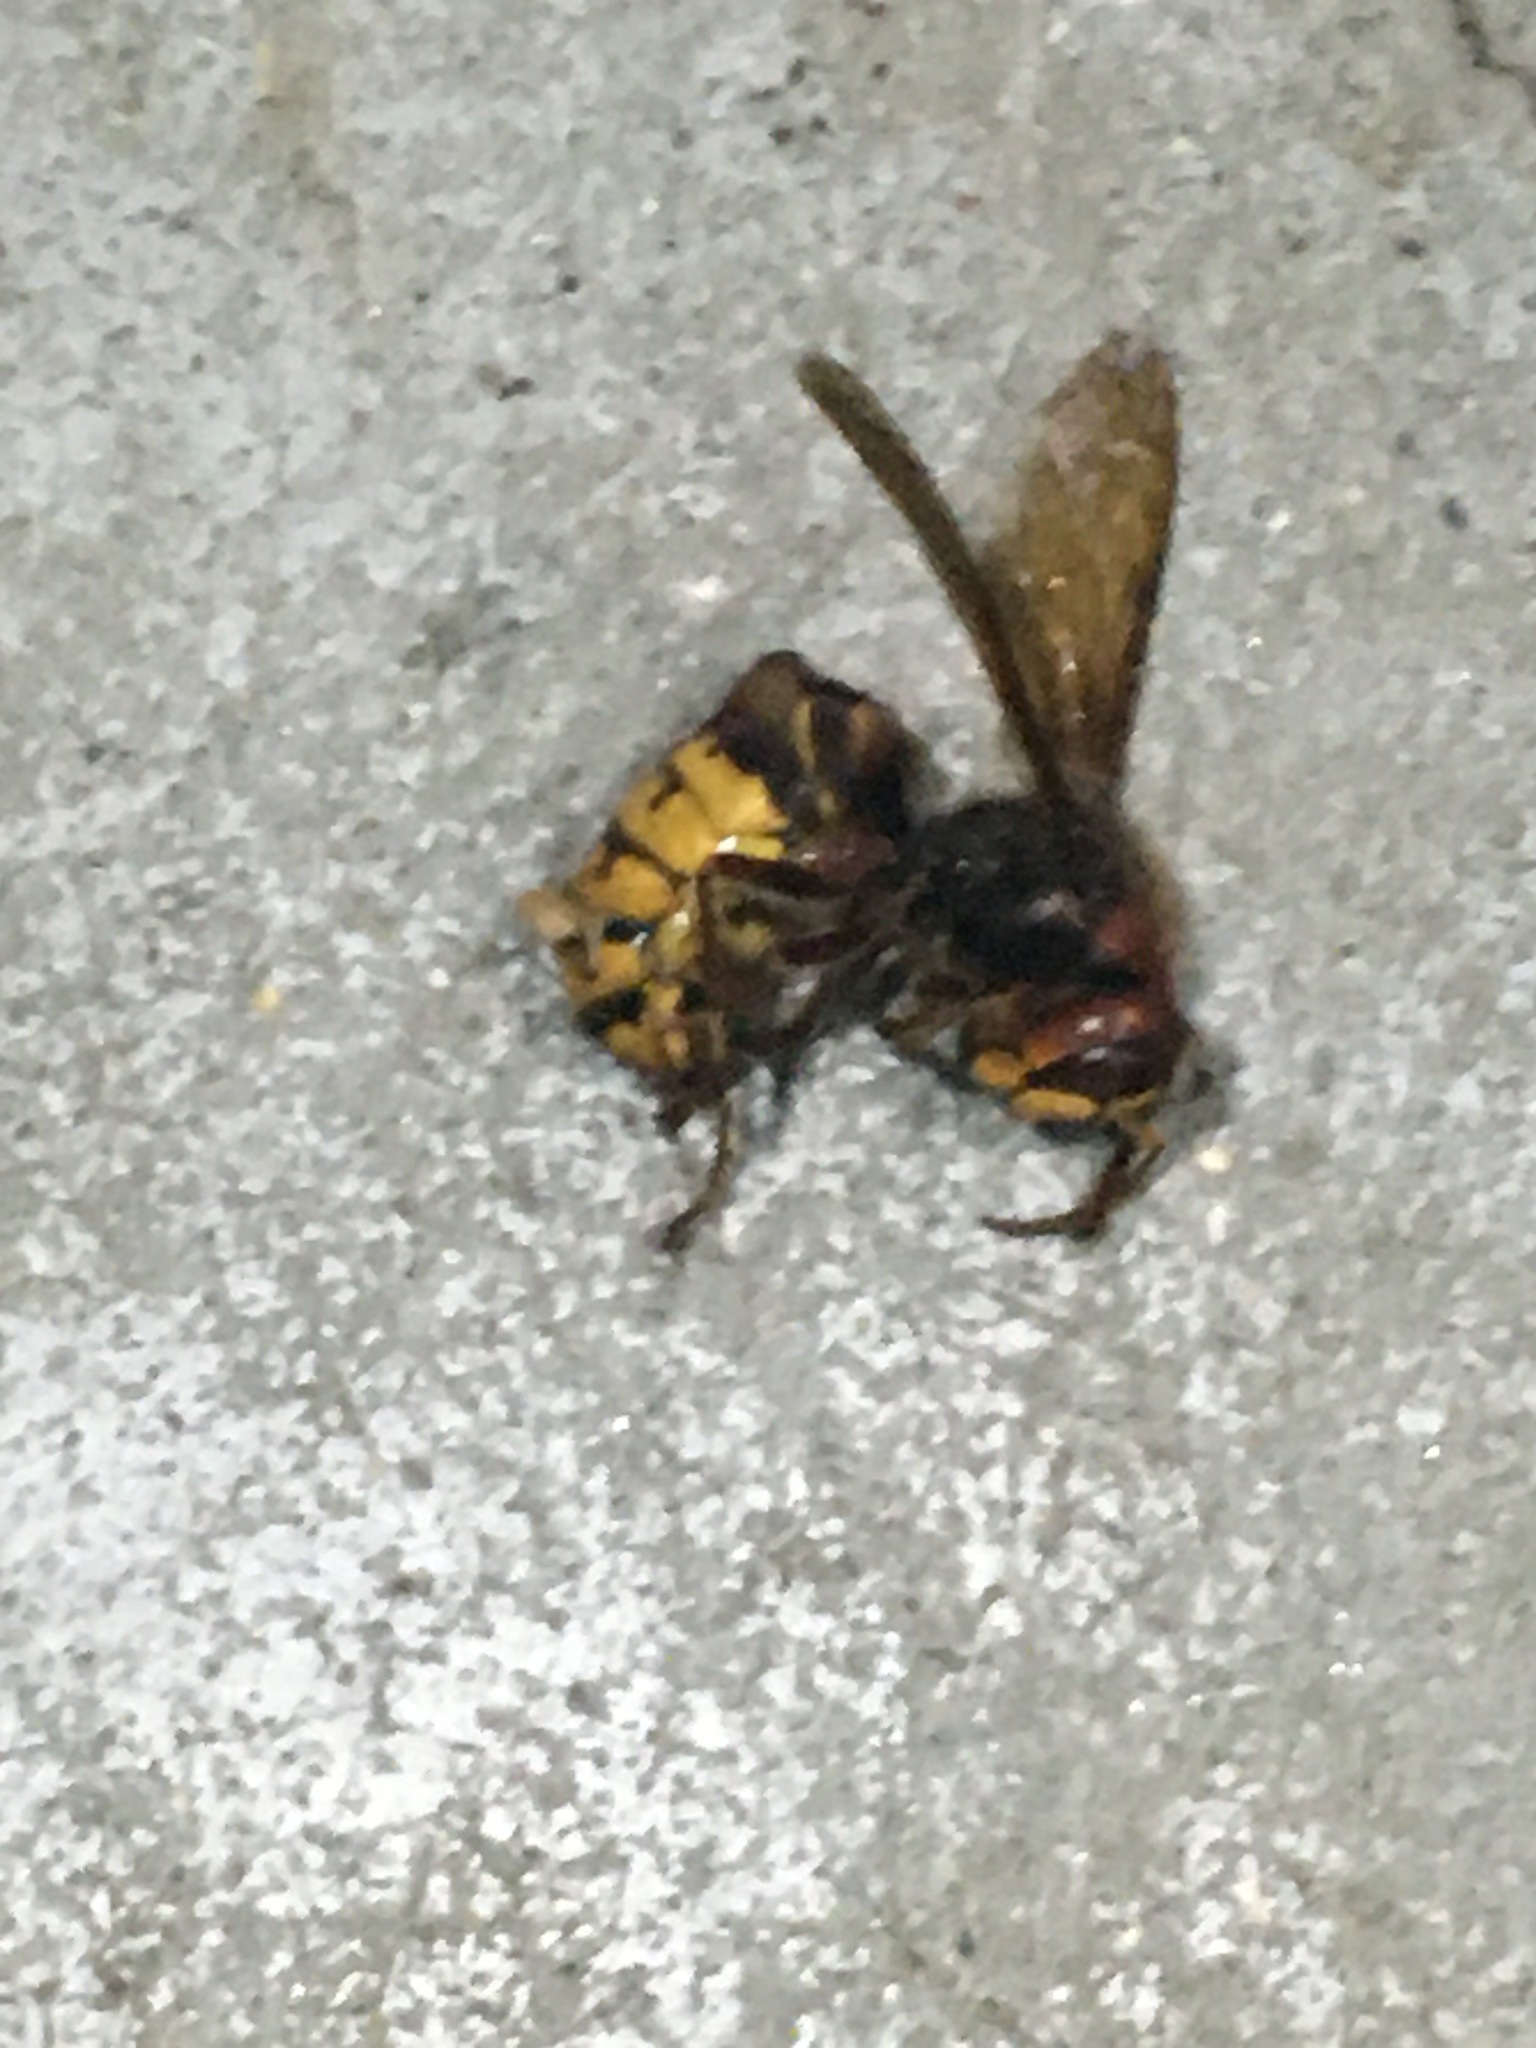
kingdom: Animalia
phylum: Arthropoda
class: Insecta
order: Hymenoptera
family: Vespidae
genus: Vespa
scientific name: Vespa crabro
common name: Hornet
